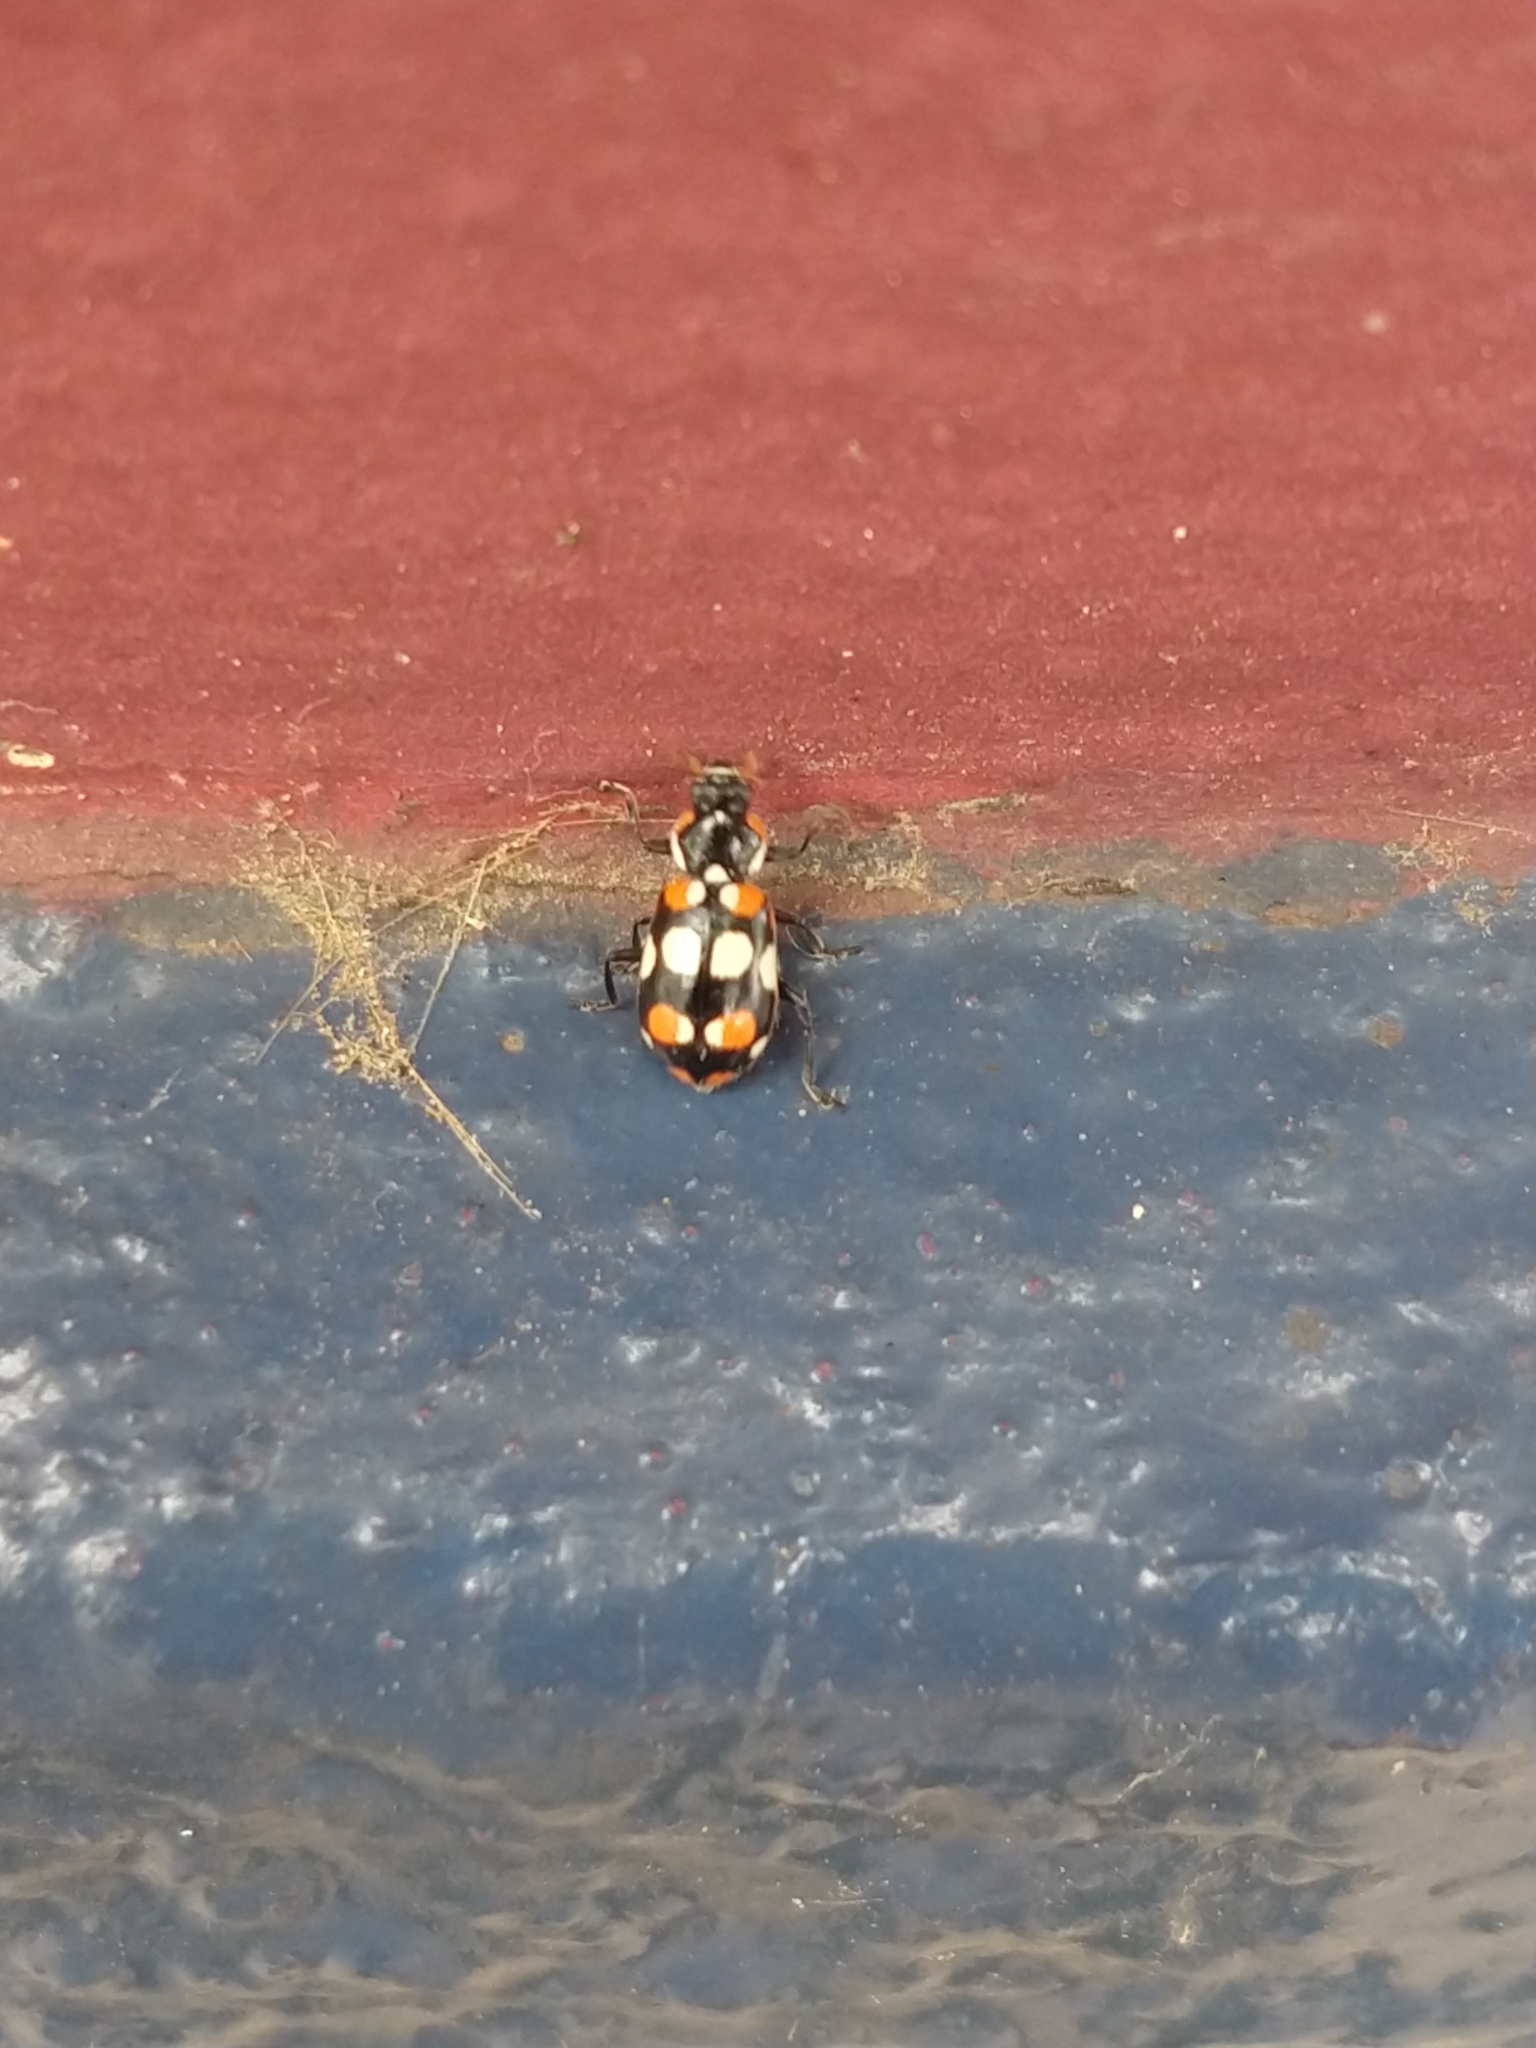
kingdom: Animalia
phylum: Arthropoda
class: Insecta
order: Coleoptera
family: Coccinellidae
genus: Eriopis
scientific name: Eriopis connexa
